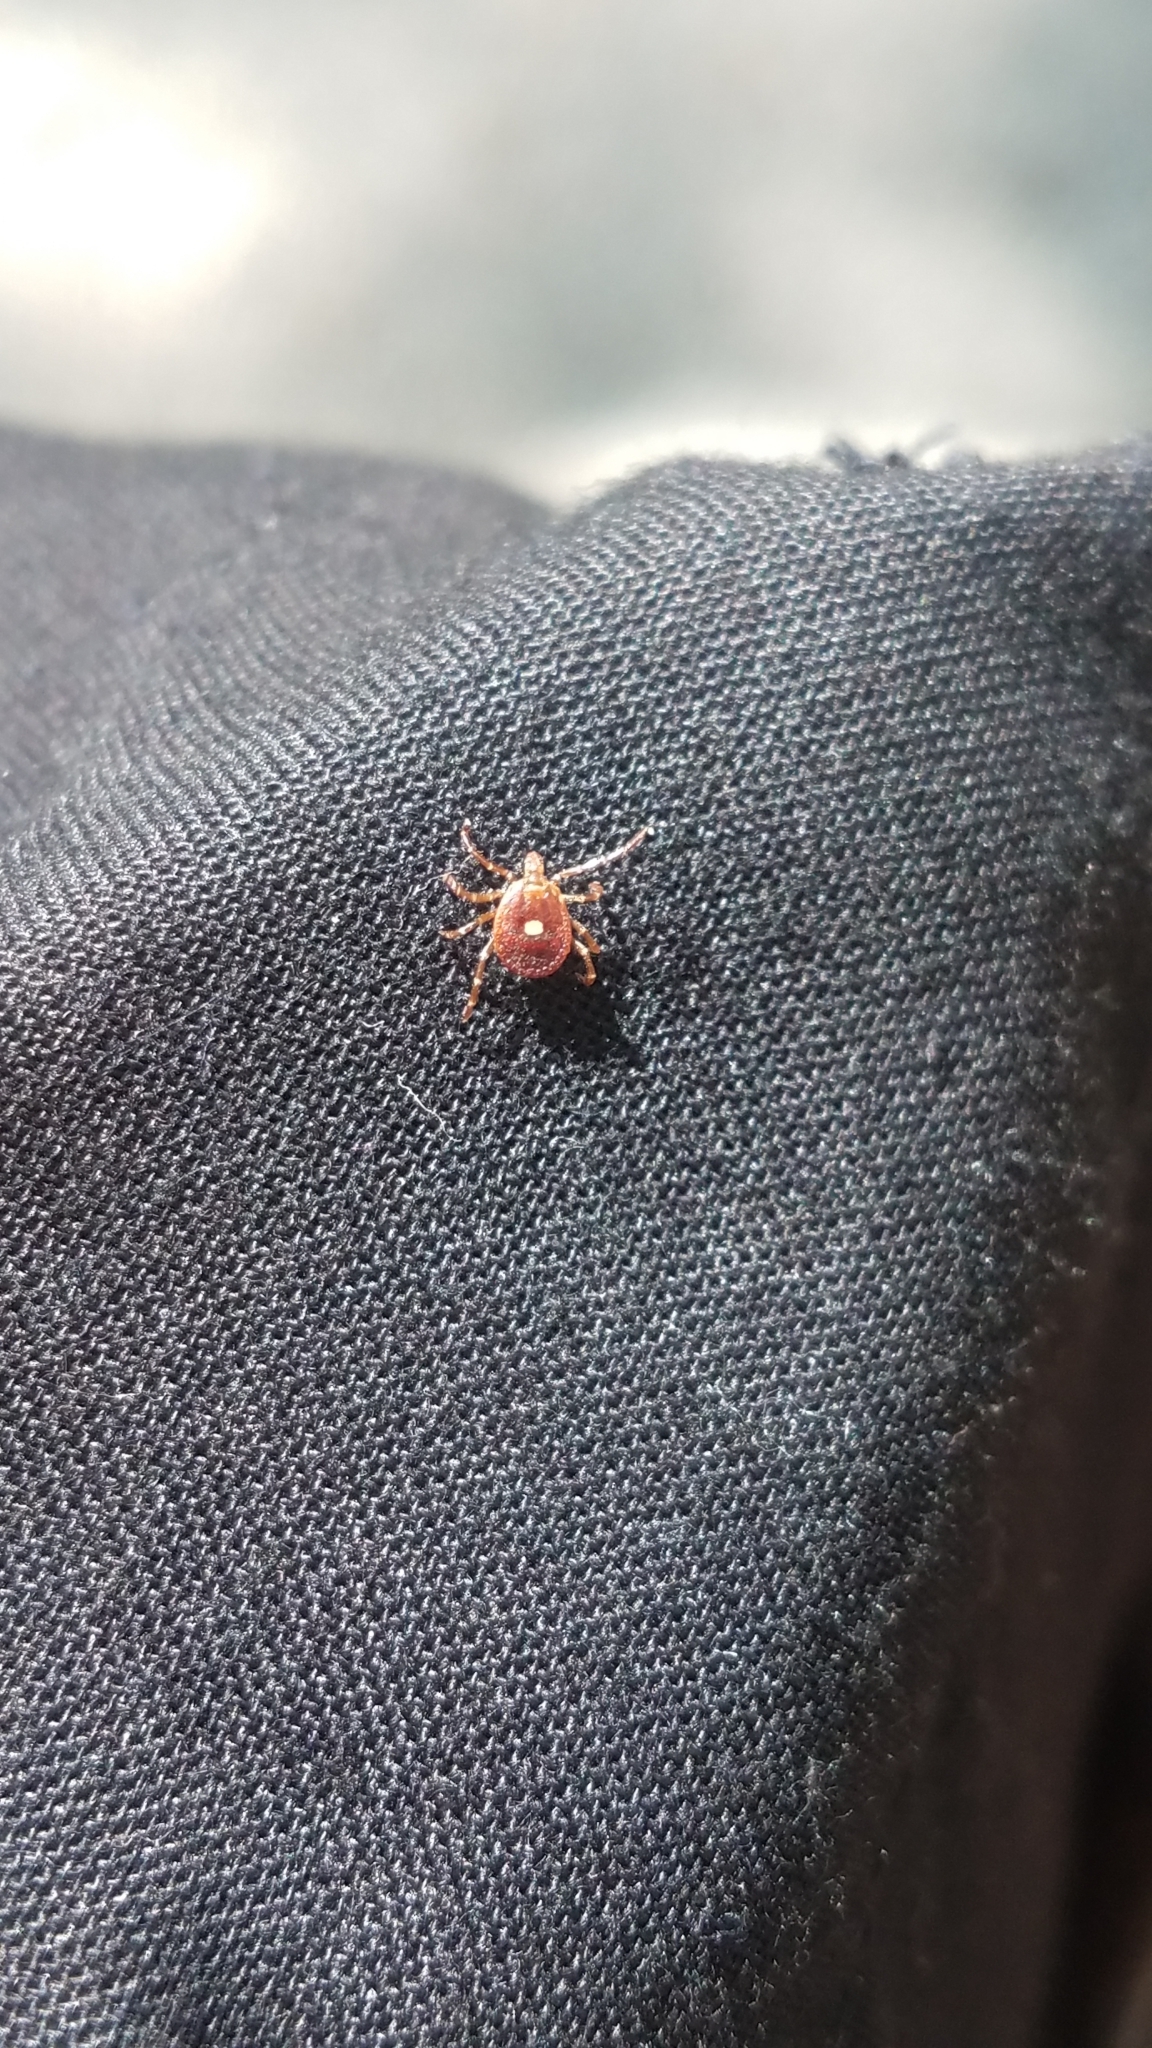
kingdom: Animalia
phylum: Arthropoda
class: Arachnida
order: Ixodida
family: Ixodidae
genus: Amblyomma
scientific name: Amblyomma americanum
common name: Lone star tick
